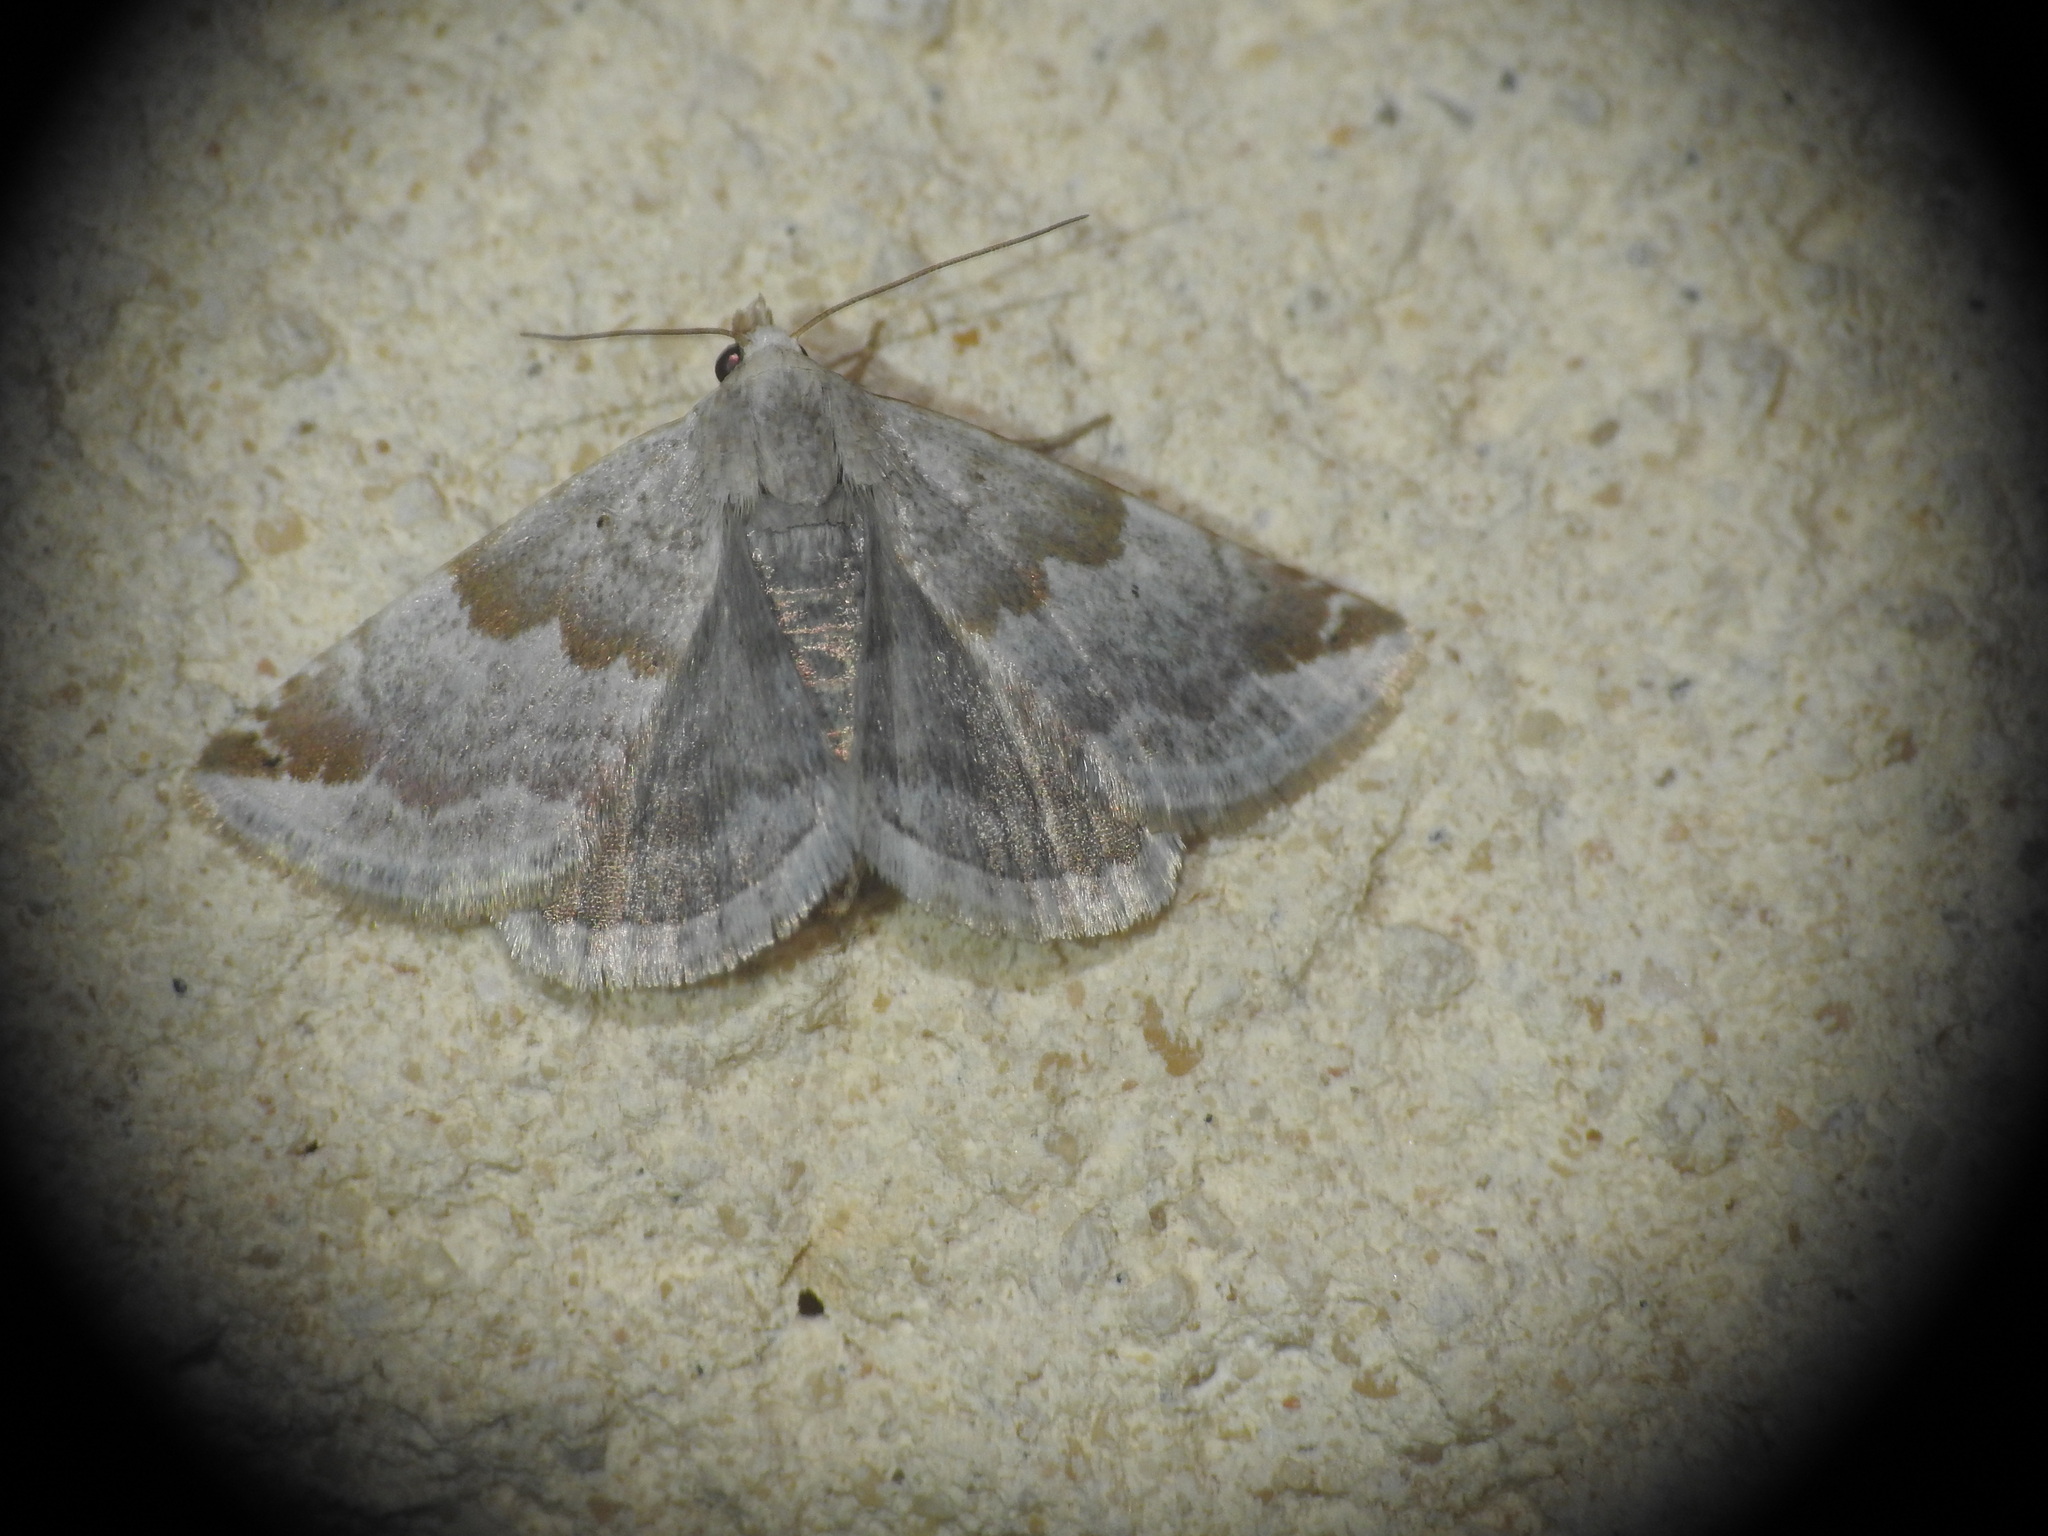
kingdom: Animalia
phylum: Arthropoda
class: Insecta
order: Lepidoptera
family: Noctuidae
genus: Eublemma
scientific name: Eublemma amoena
